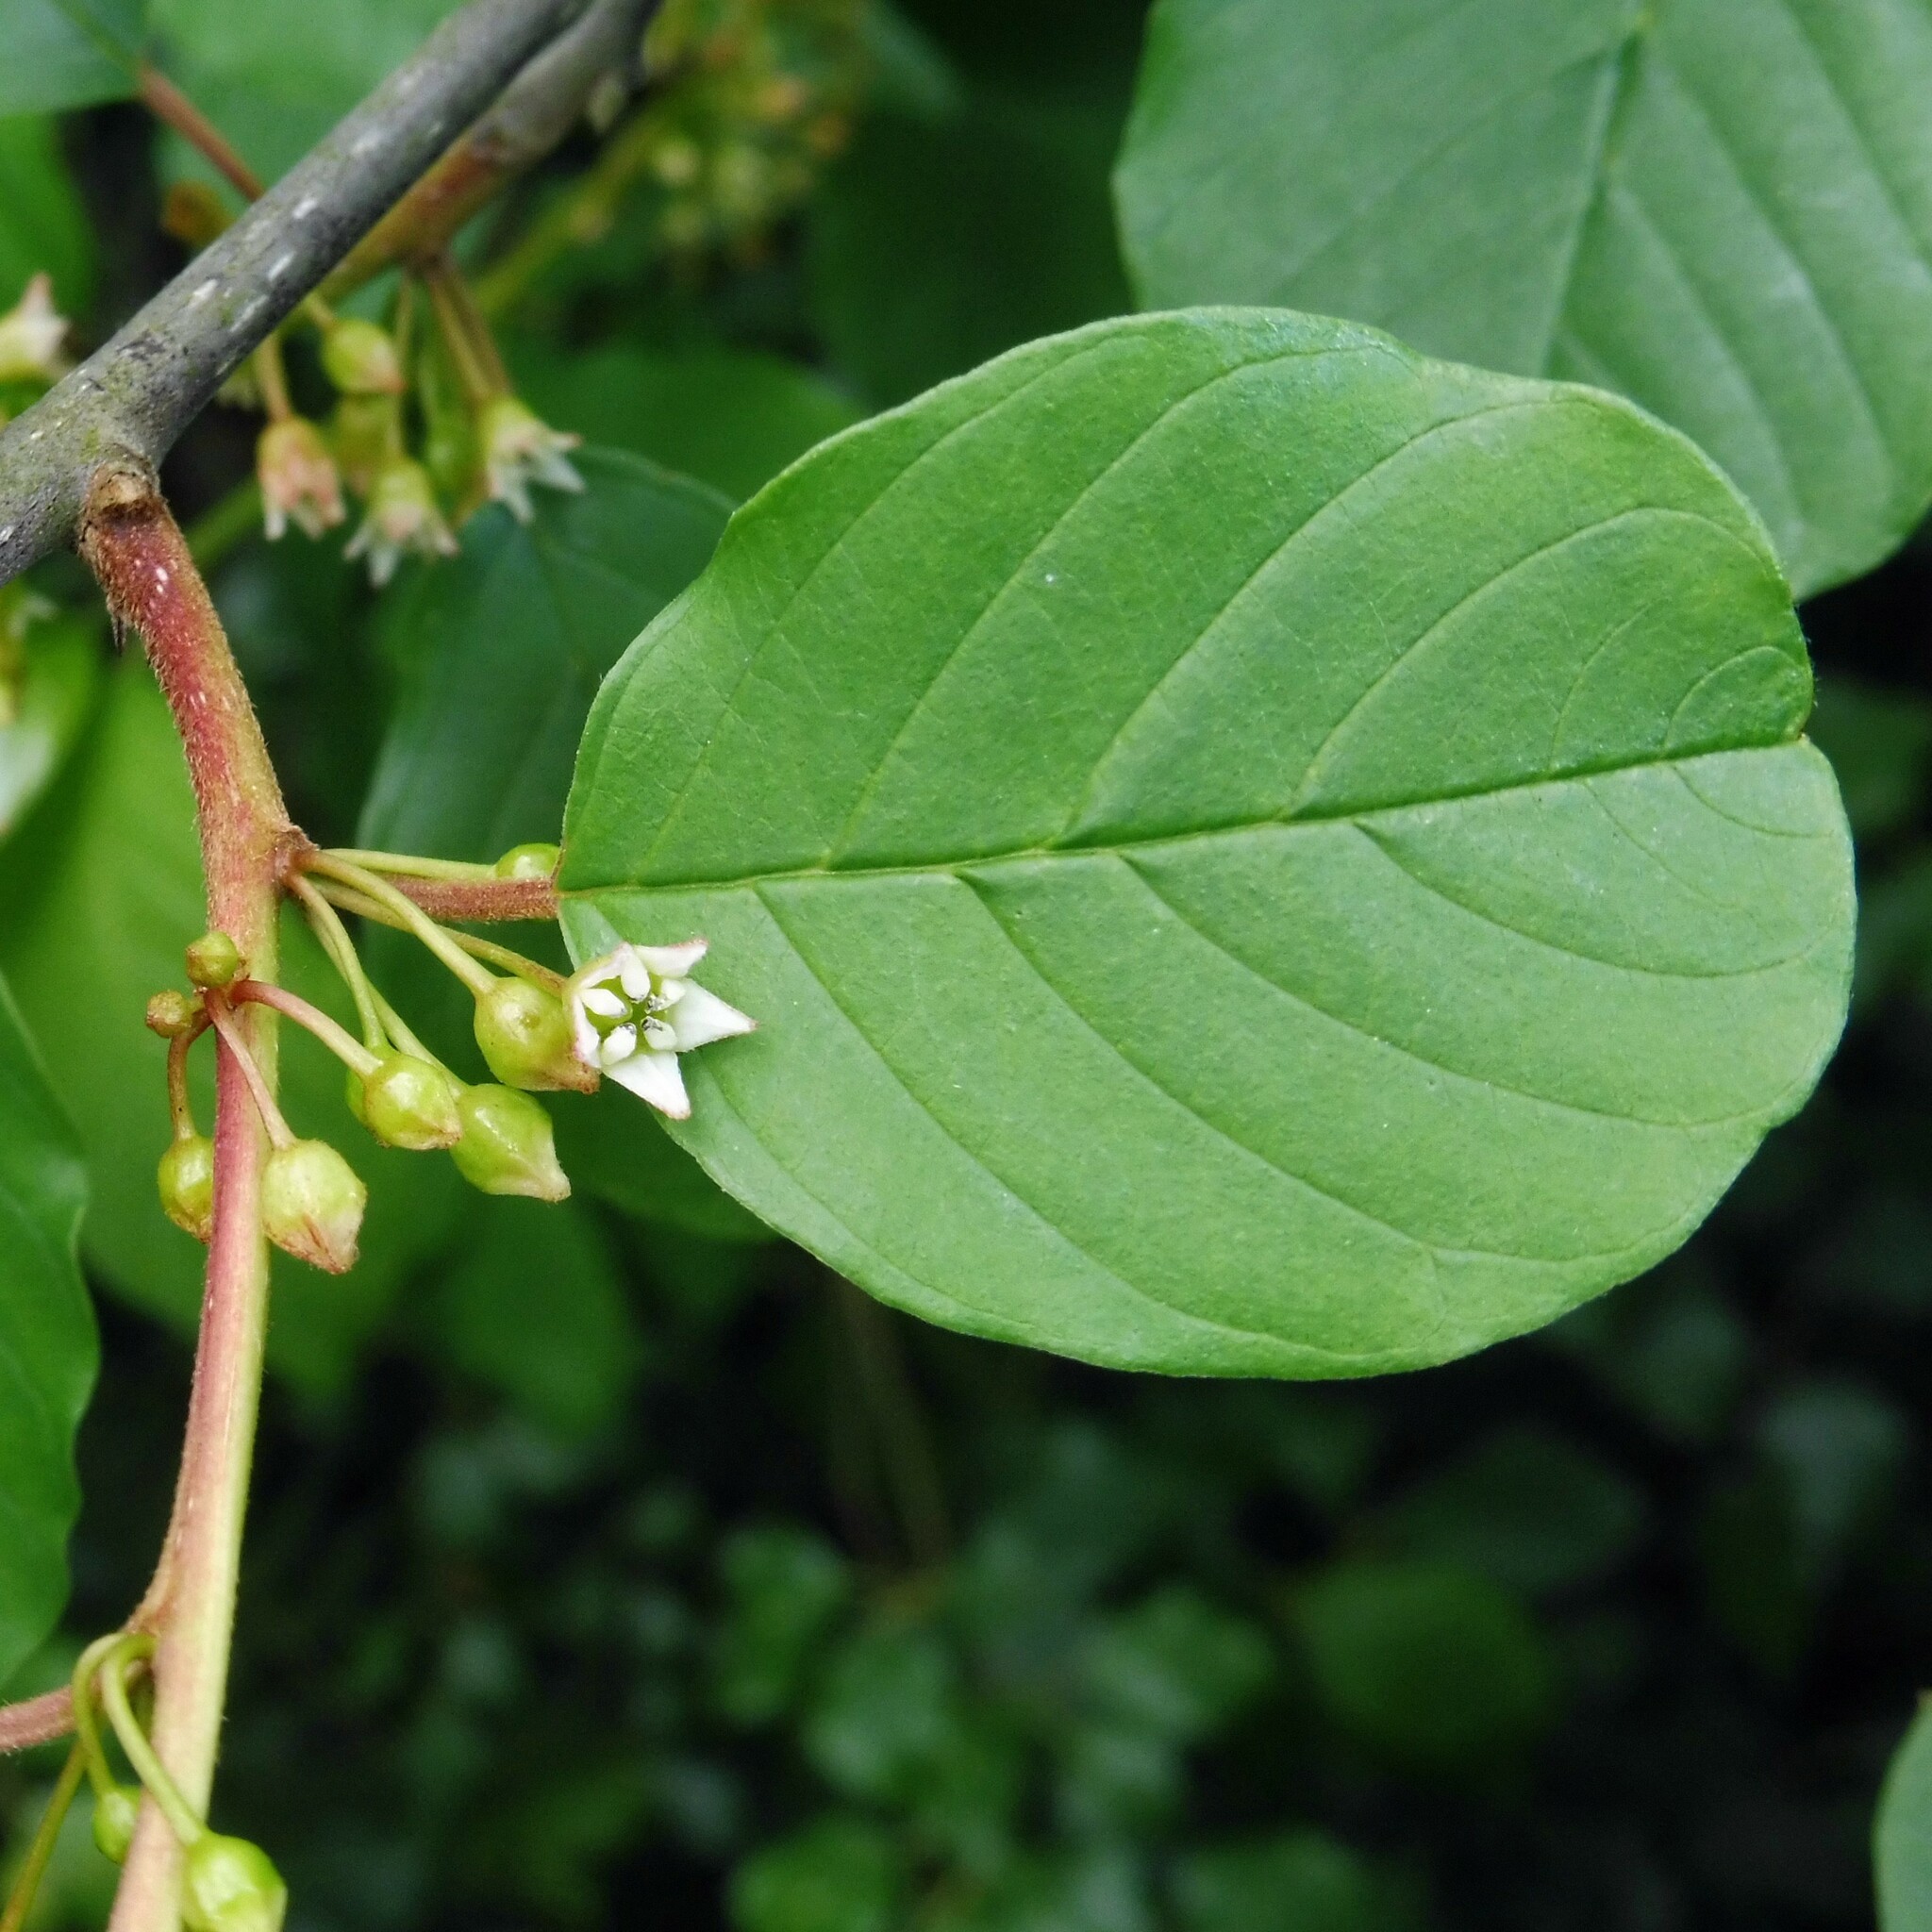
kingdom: Plantae
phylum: Tracheophyta
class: Magnoliopsida
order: Rosales
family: Rhamnaceae
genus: Frangula
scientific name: Frangula alnus
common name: Alder buckthorn
